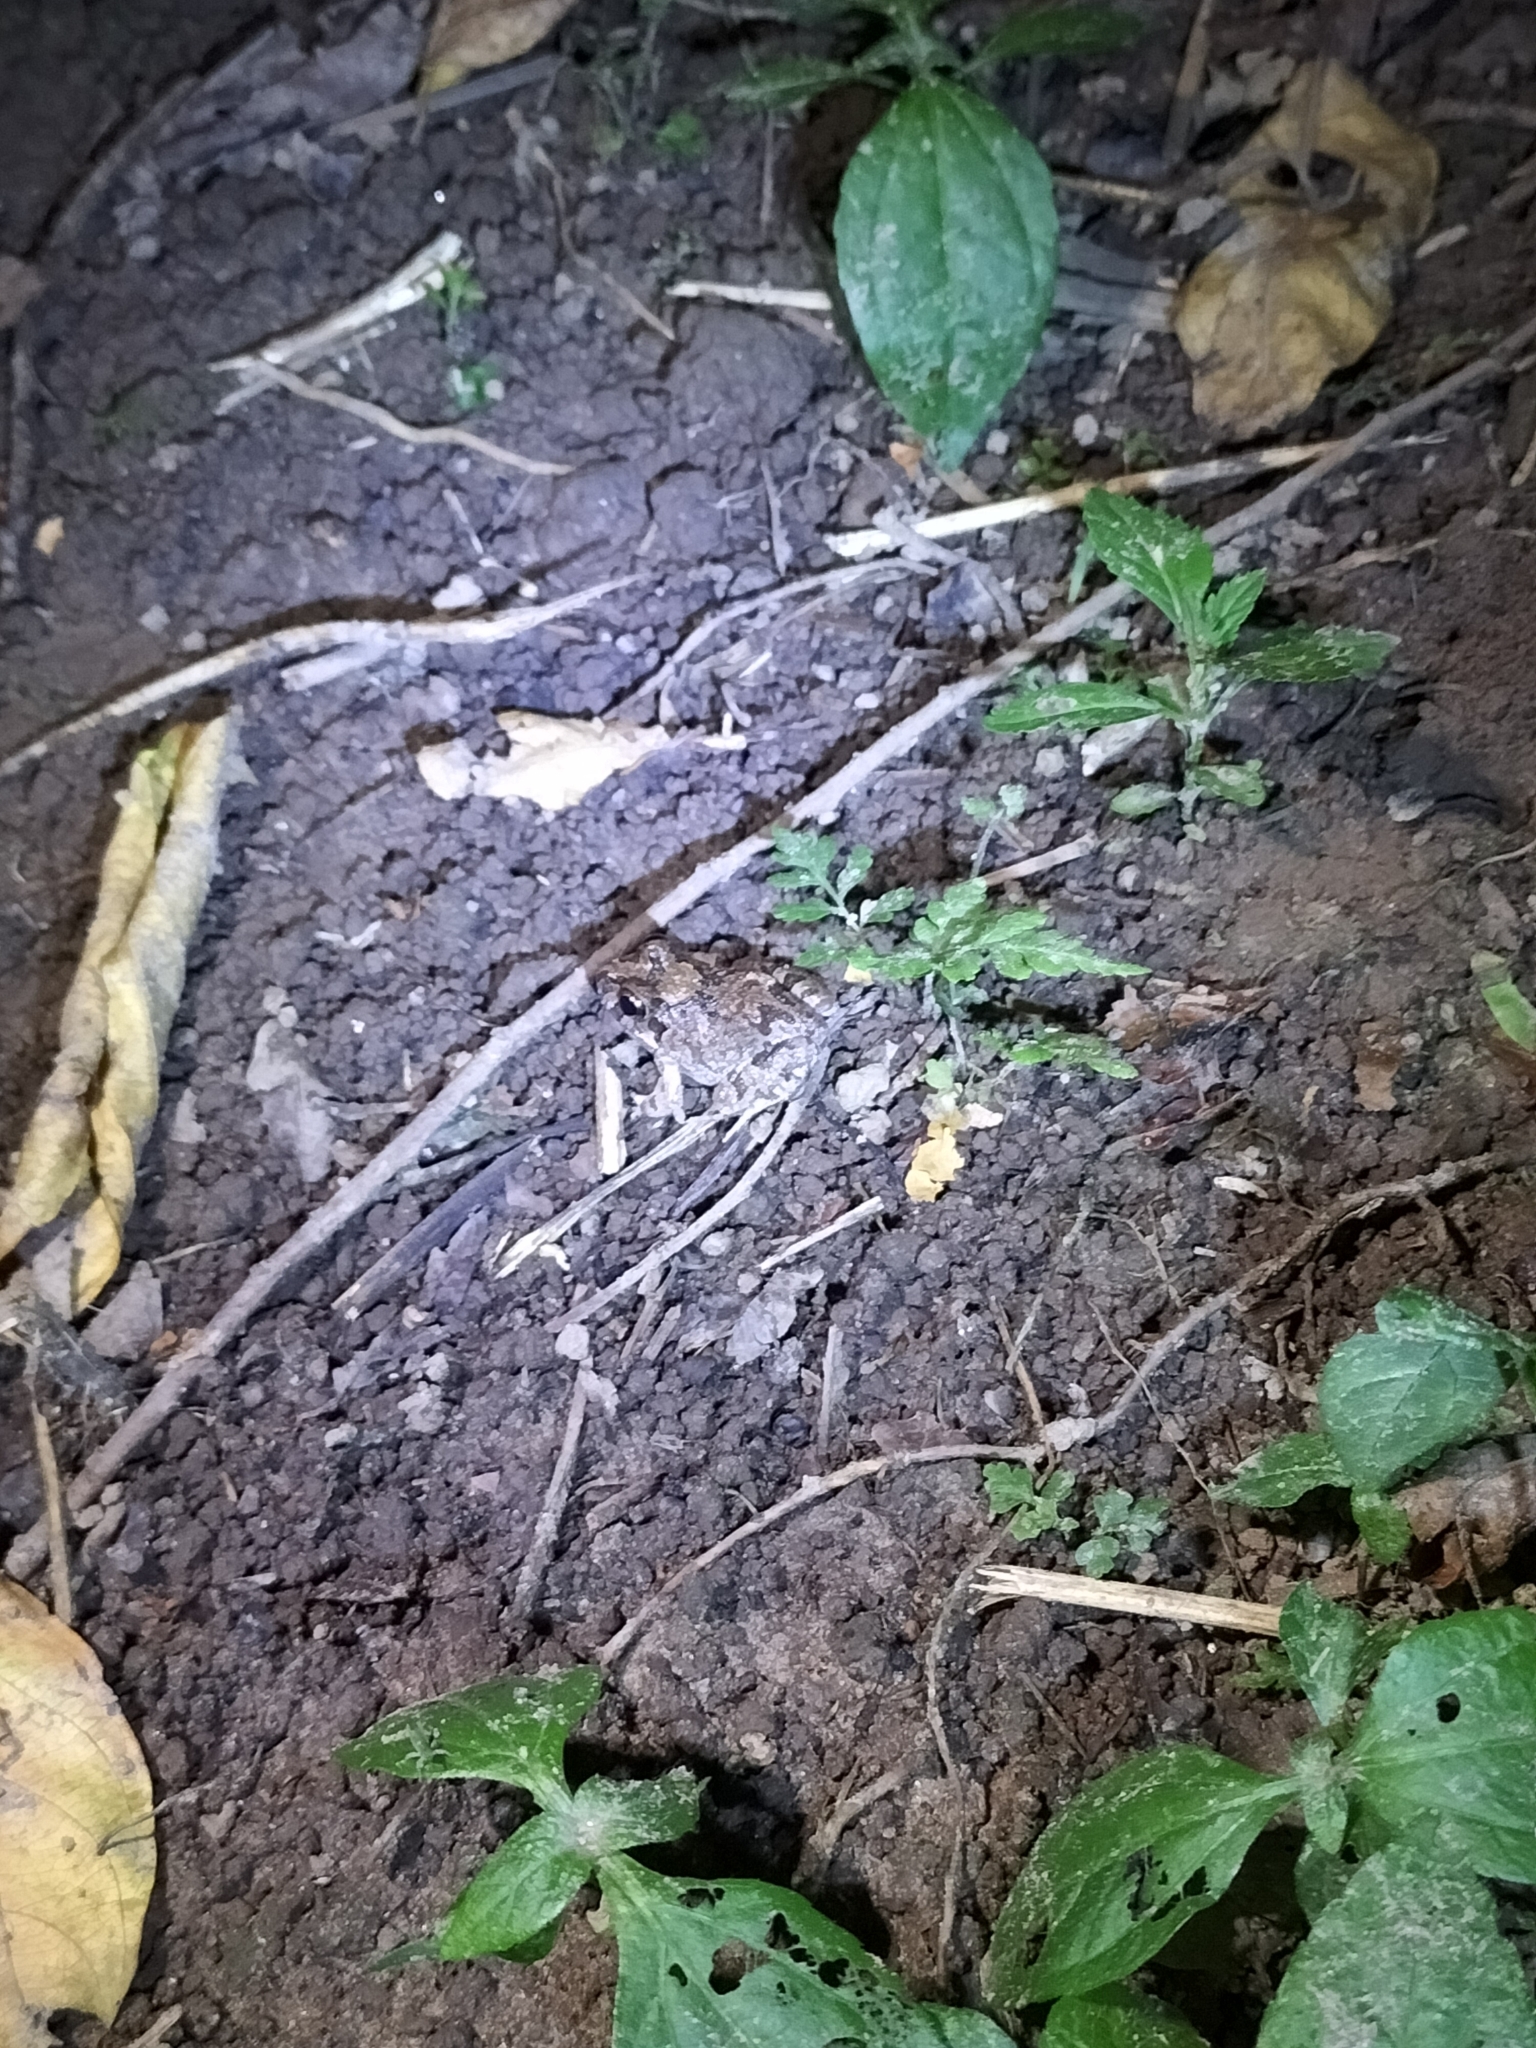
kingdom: Animalia
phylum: Chordata
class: Amphibia
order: Anura
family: Limnodynastidae
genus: Platyplectrum
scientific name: Platyplectrum ornatum
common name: Ornate burrowing frog
